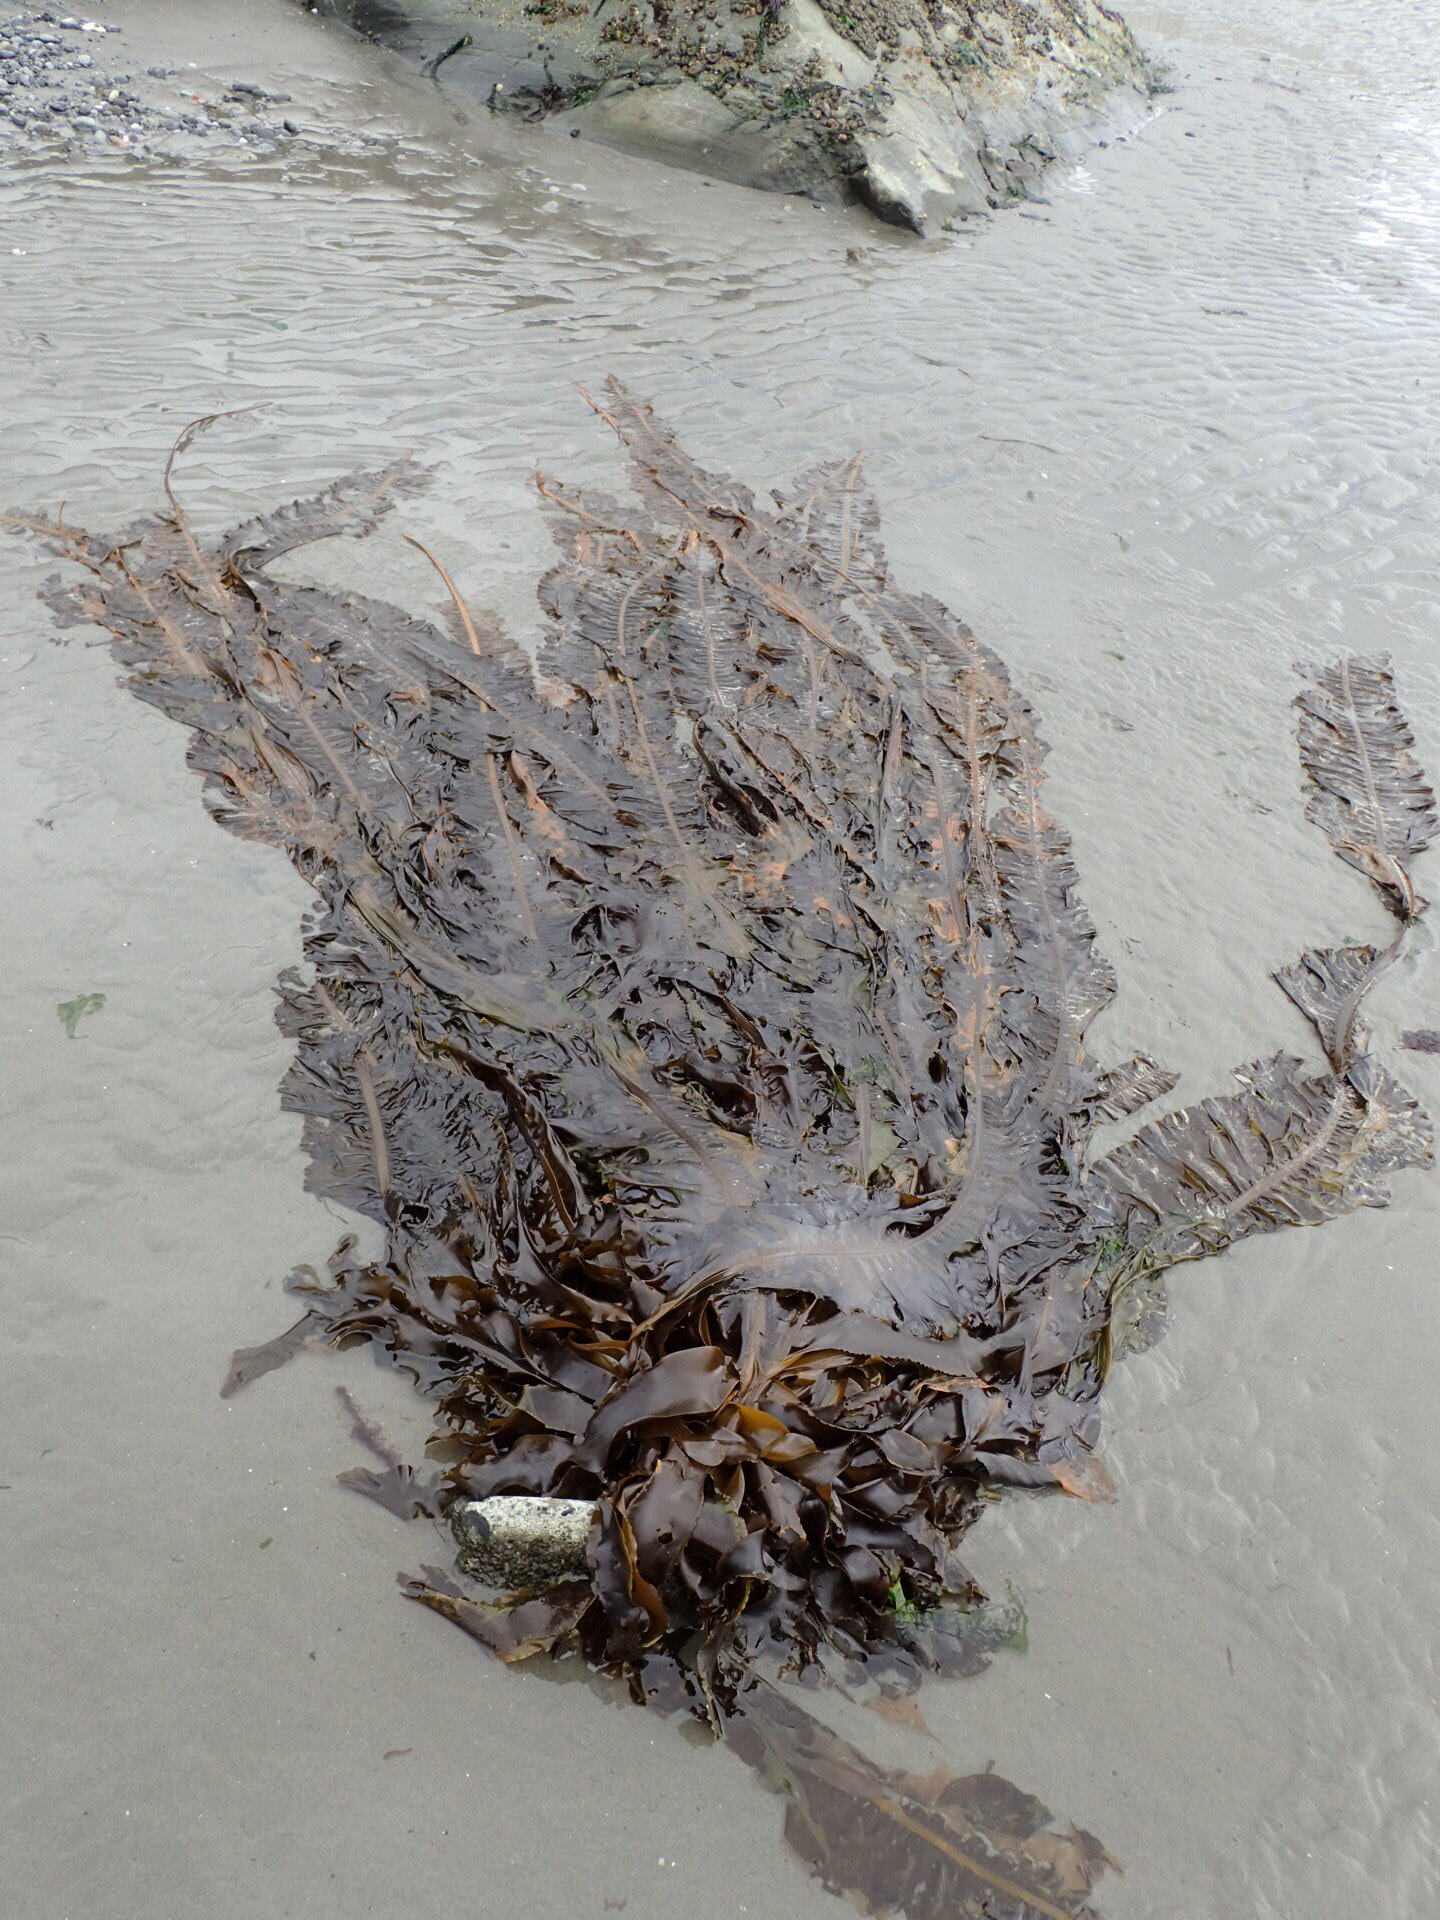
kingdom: Chromista
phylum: Ochrophyta
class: Phaeophyceae
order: Laminariales
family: Alariaceae
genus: Alaria
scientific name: Alaria marginata
